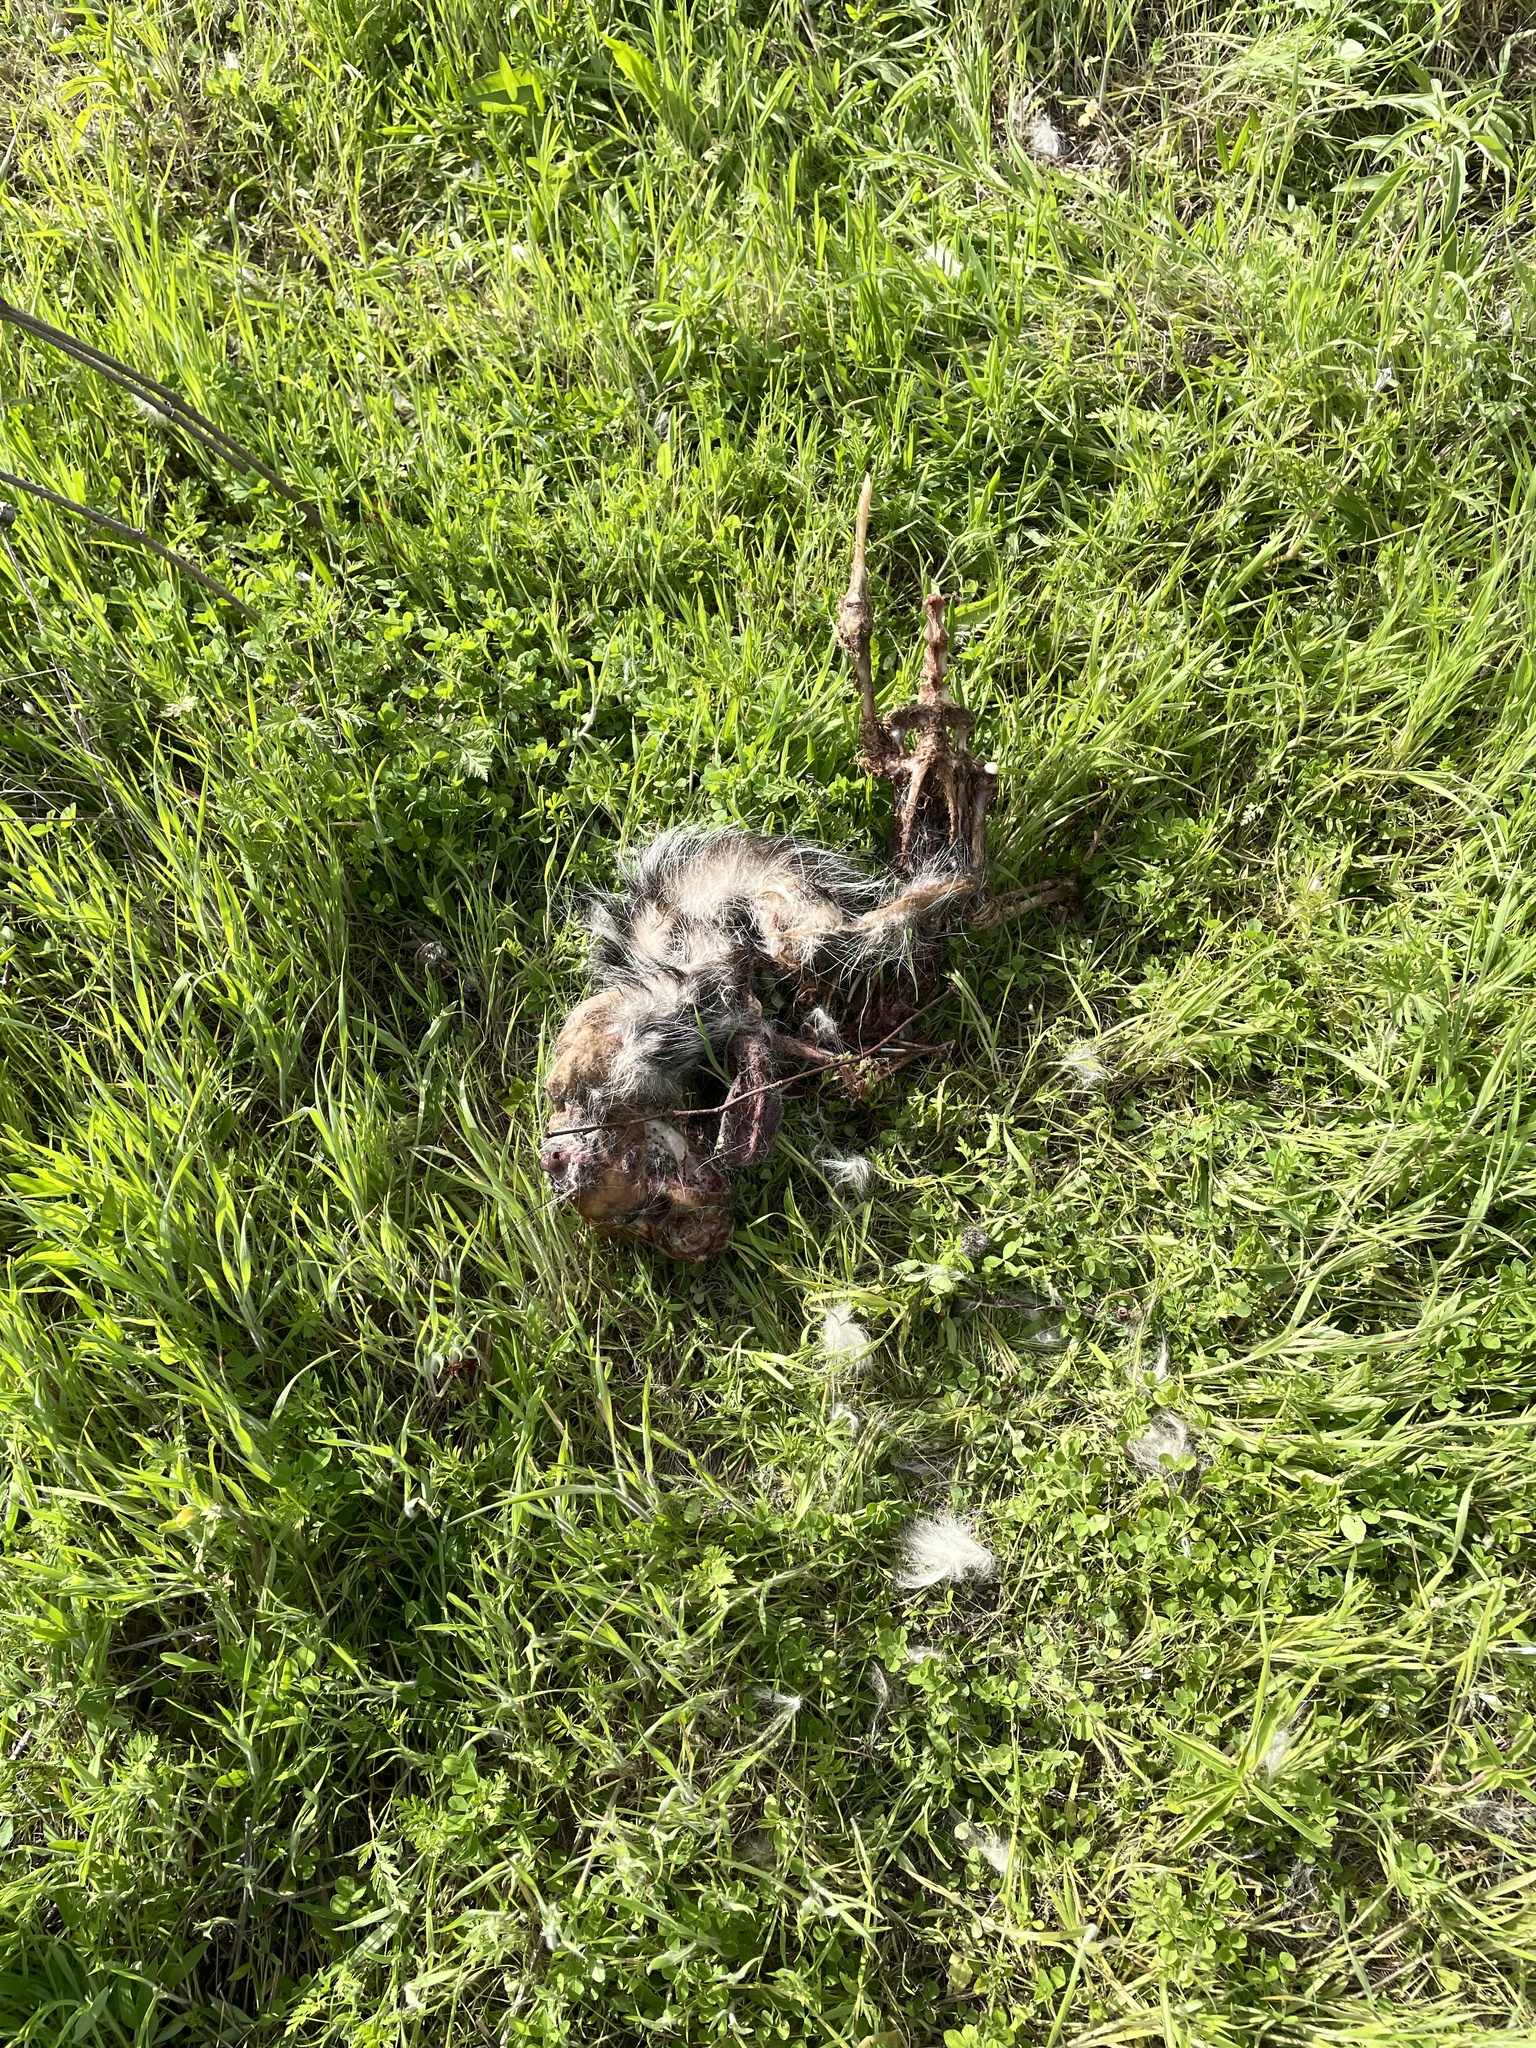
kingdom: Animalia
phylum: Chordata
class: Mammalia
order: Didelphimorphia
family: Didelphidae
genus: Didelphis
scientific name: Didelphis virginiana
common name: Virginia opossum
